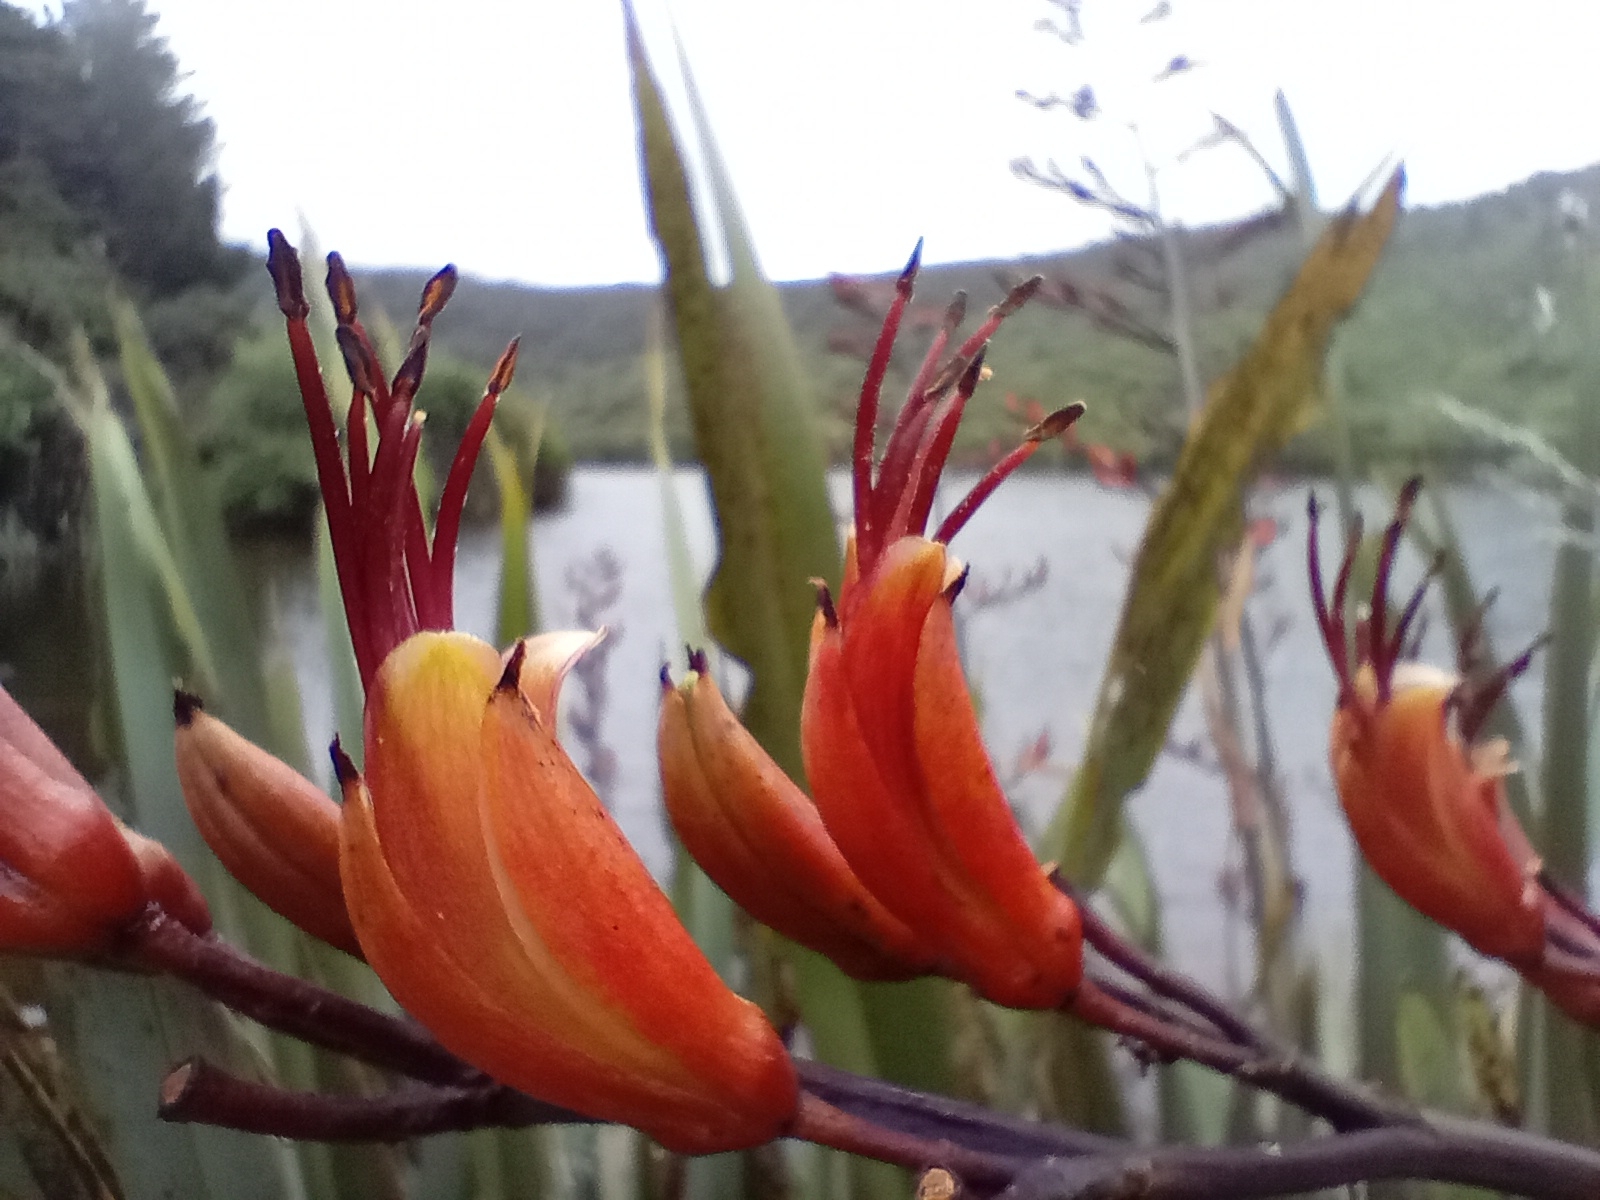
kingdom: Plantae
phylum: Tracheophyta
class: Liliopsida
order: Asparagales
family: Asphodelaceae
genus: Phormium
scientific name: Phormium tenax
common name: New zealand flax
